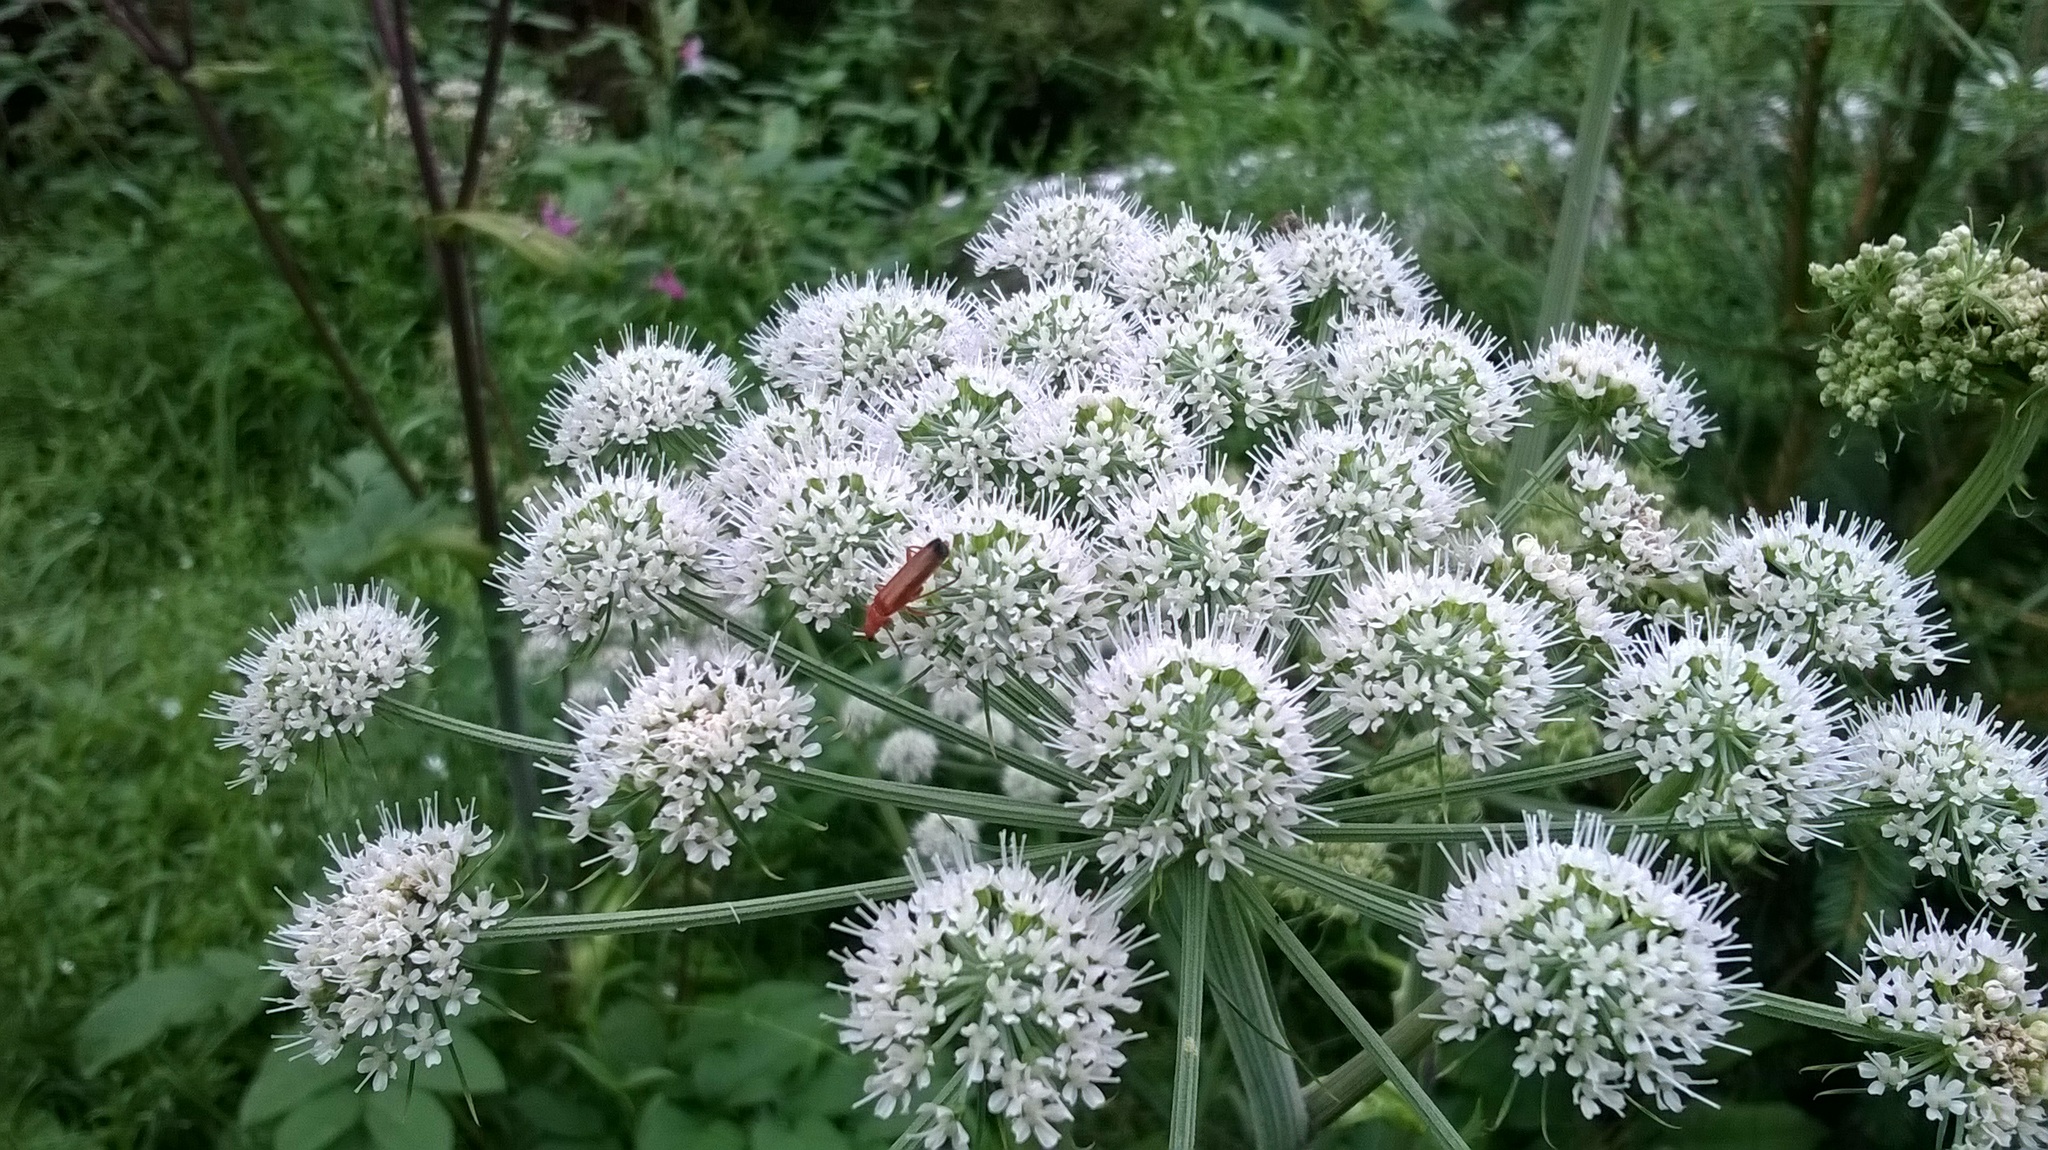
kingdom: Animalia
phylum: Arthropoda
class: Insecta
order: Coleoptera
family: Cantharidae
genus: Rhagonycha
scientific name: Rhagonycha fulva
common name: Common red soldier beetle
